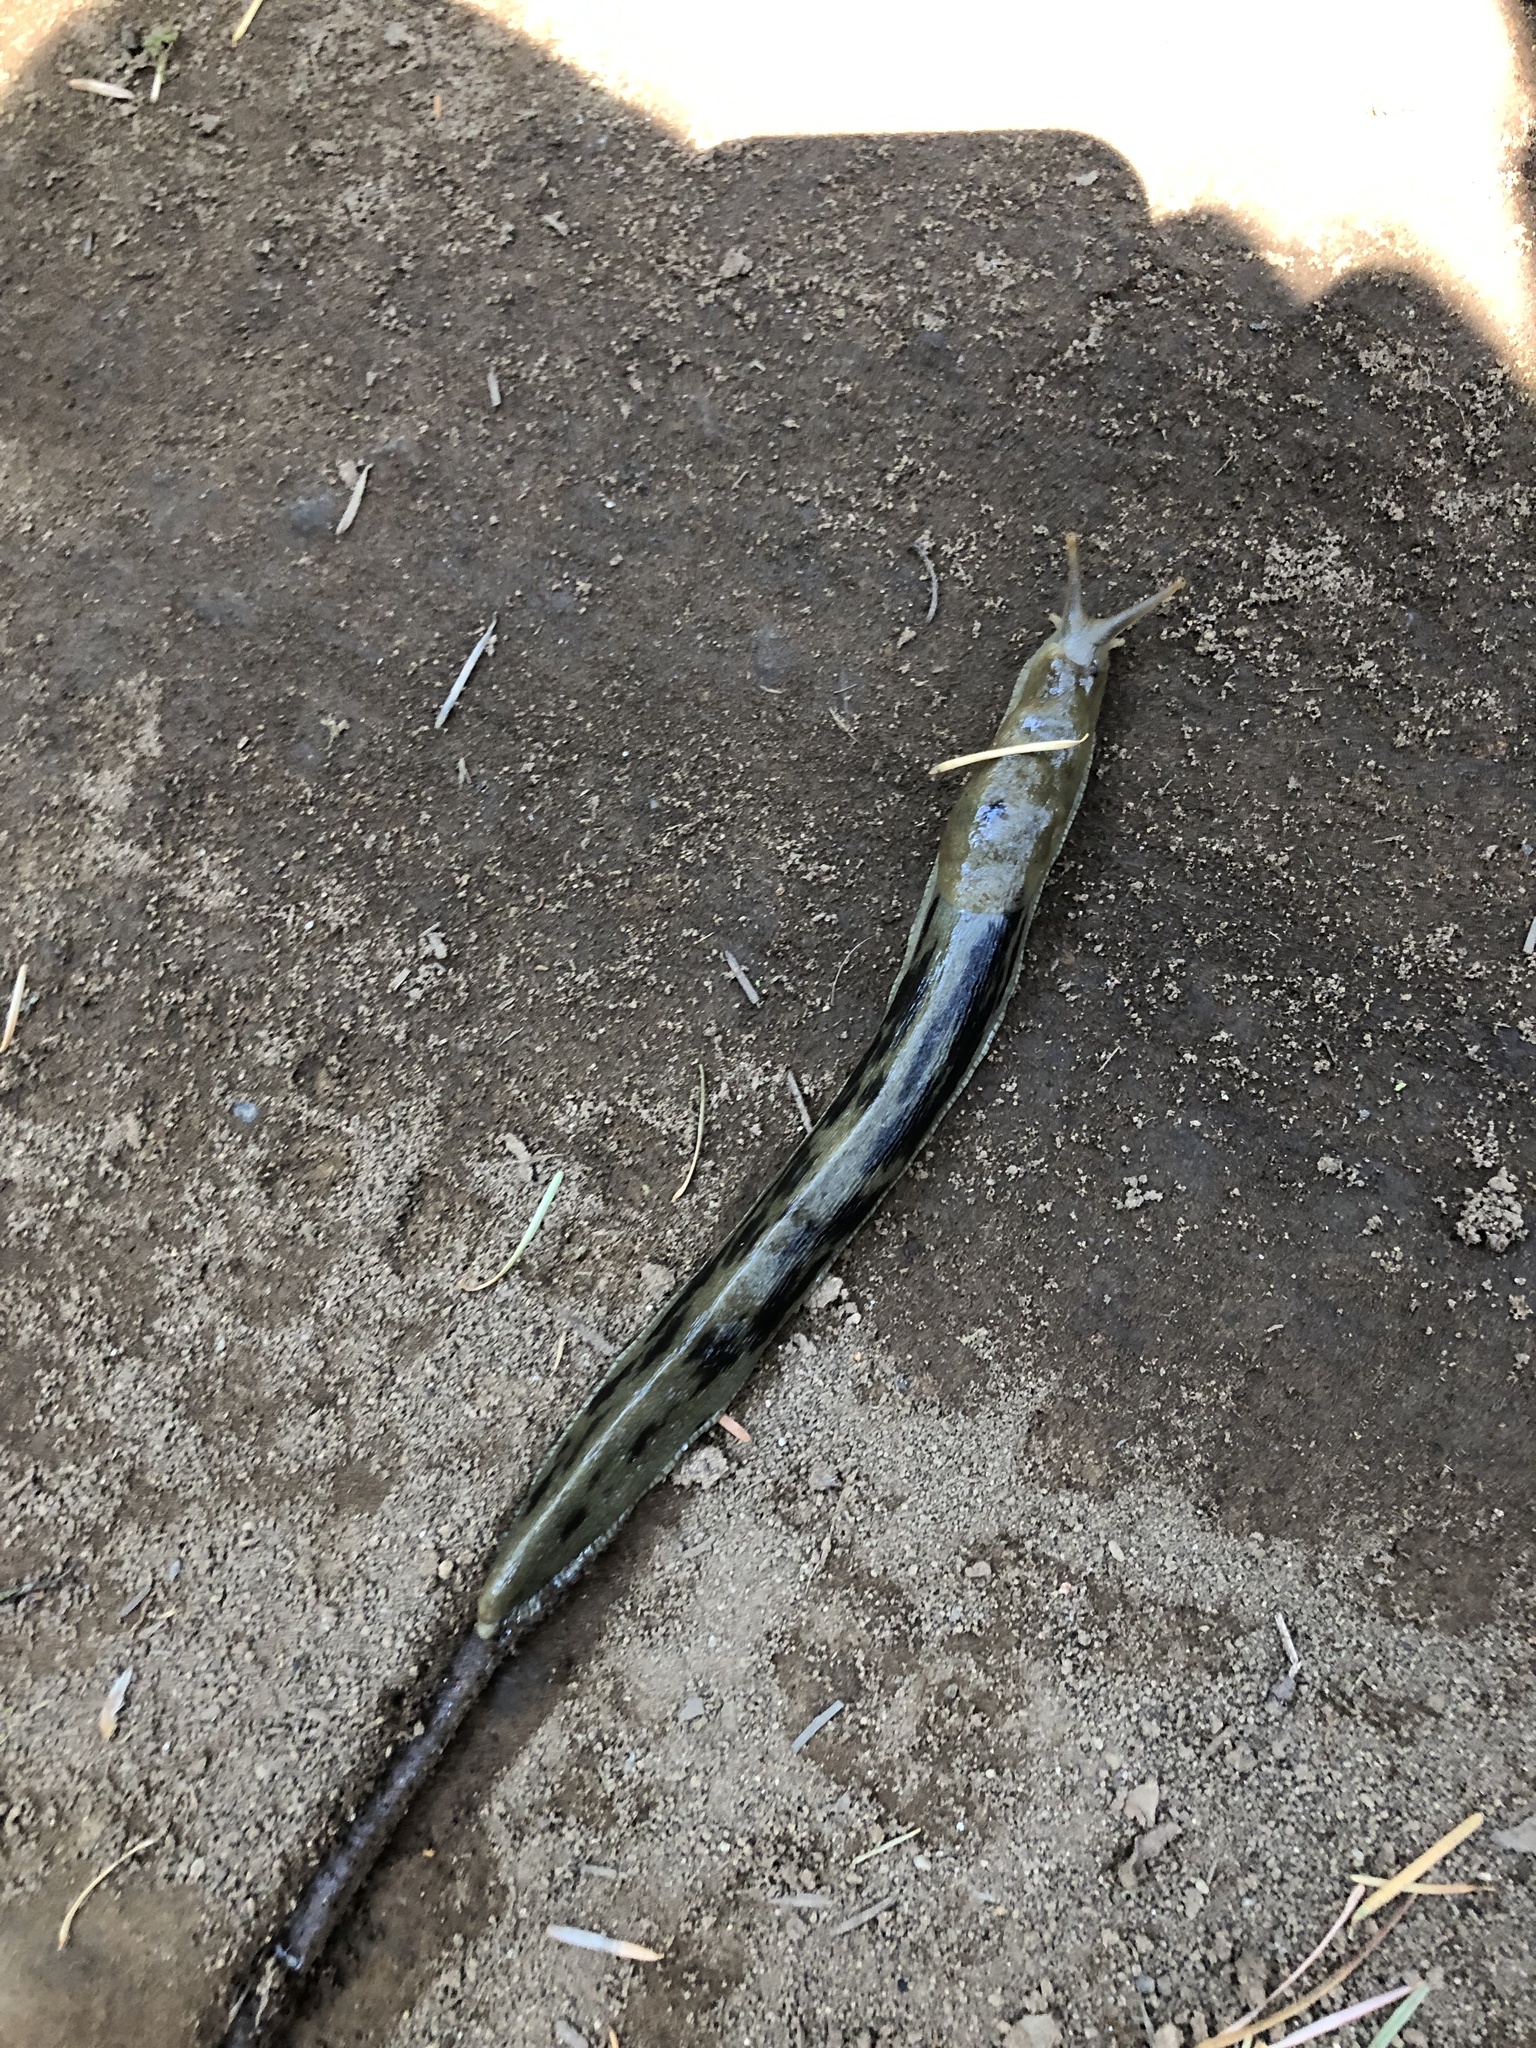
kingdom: Animalia
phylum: Mollusca
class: Gastropoda
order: Stylommatophora
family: Ariolimacidae
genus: Ariolimax
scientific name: Ariolimax columbianus
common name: Pacific banana slug
